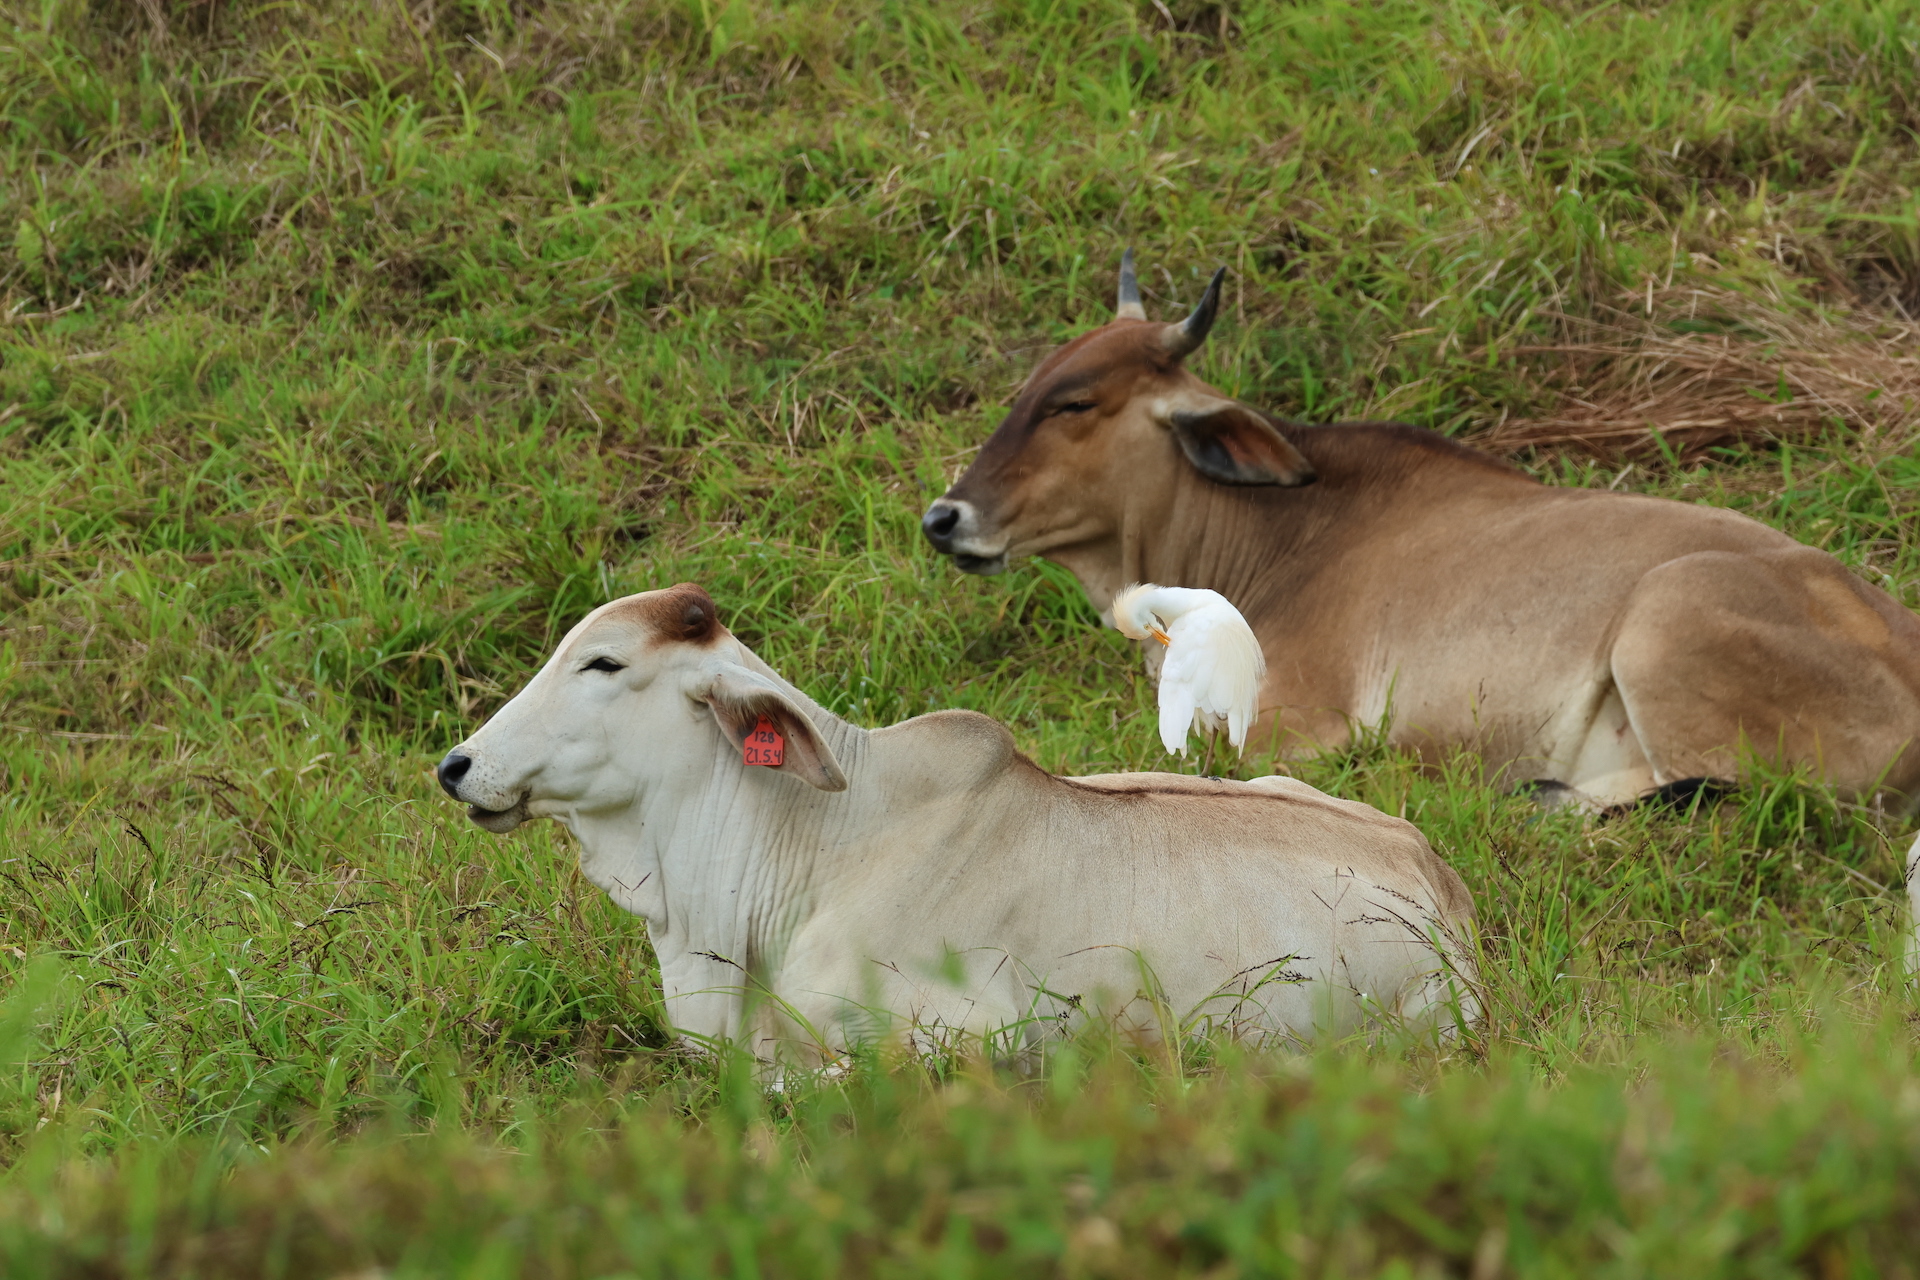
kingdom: Animalia
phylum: Chordata
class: Aves
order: Pelecaniformes
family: Ardeidae
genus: Bubulcus
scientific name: Bubulcus ibis
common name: Cattle egret
